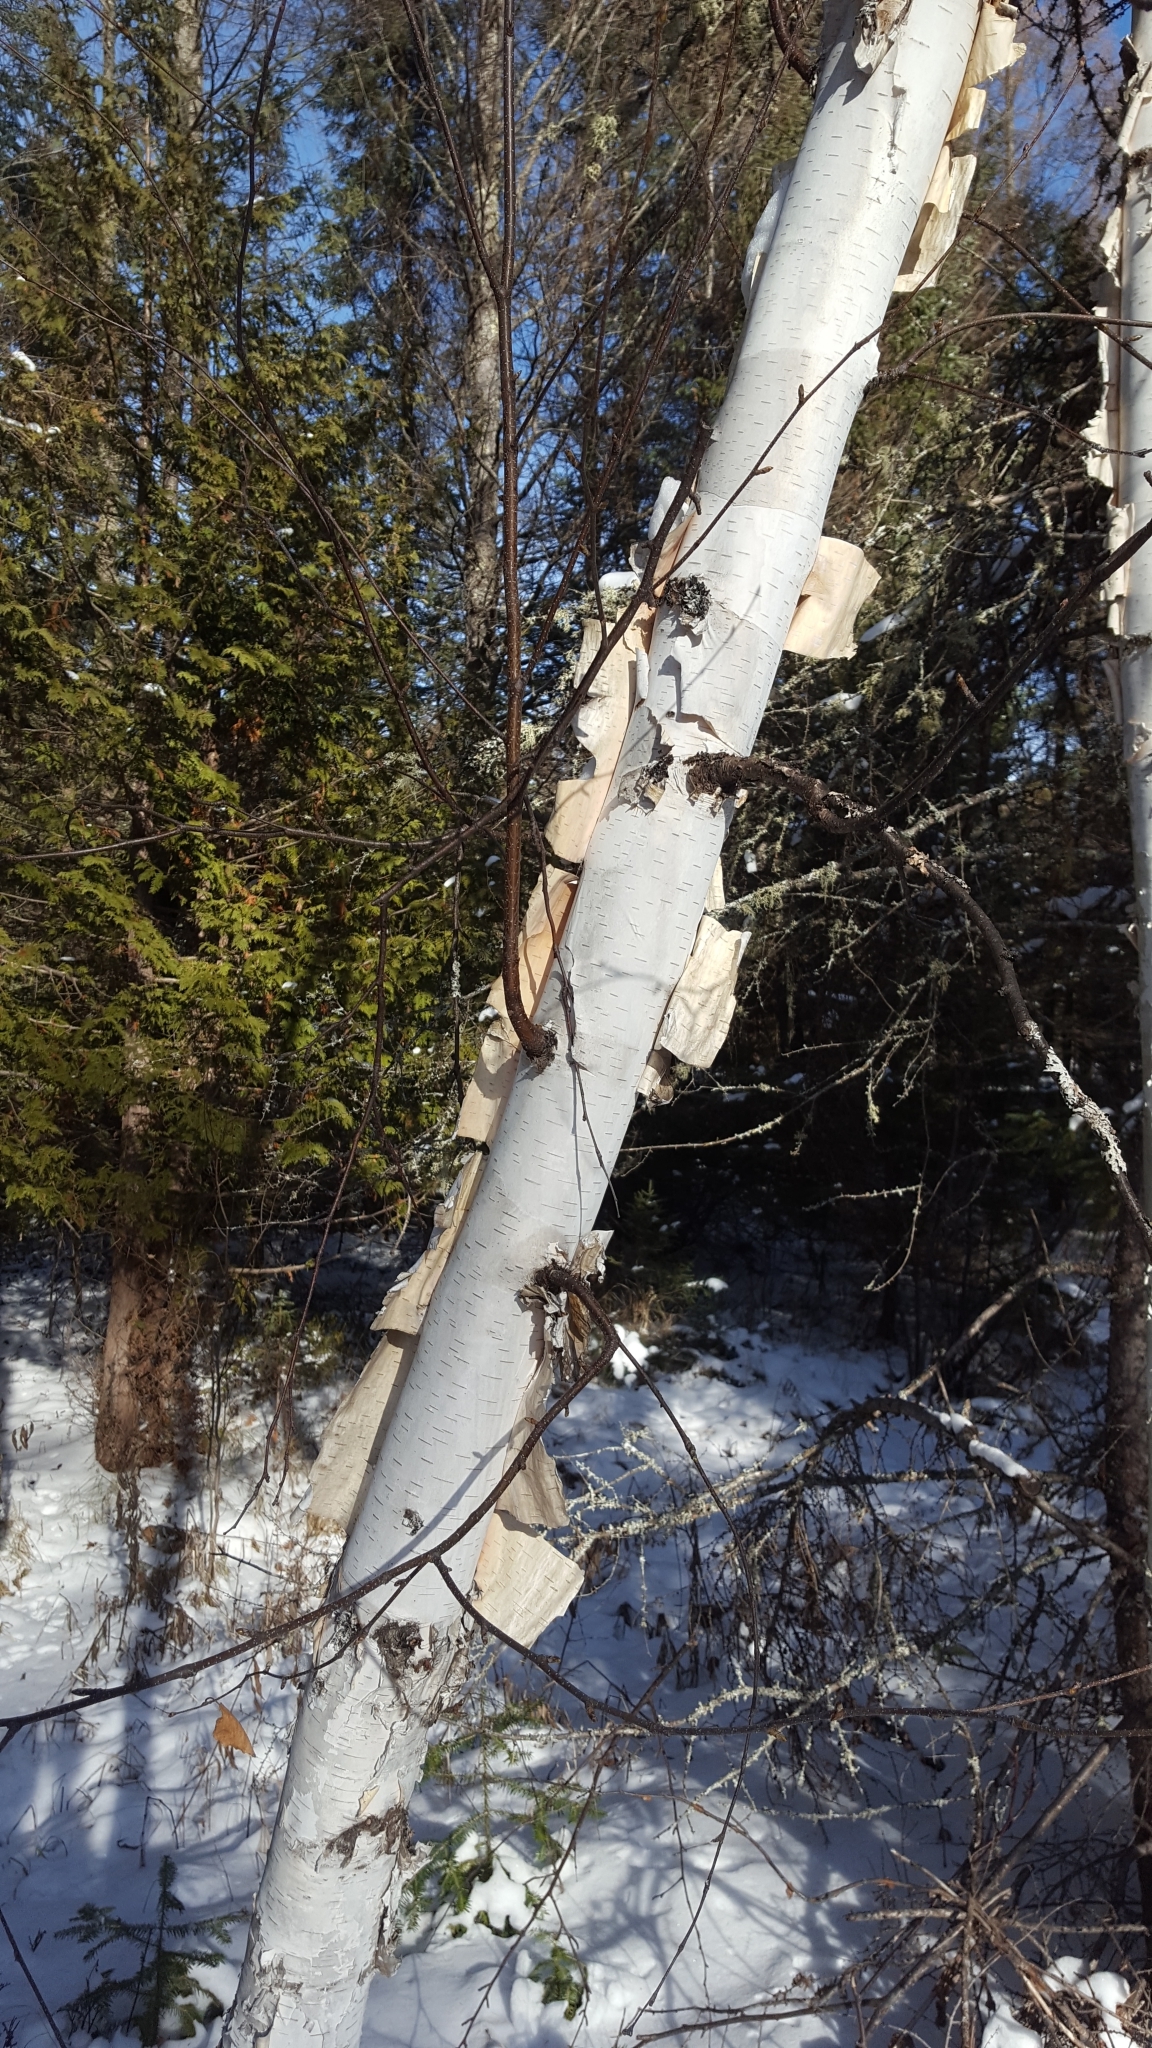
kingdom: Plantae
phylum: Tracheophyta
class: Magnoliopsida
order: Fagales
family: Betulaceae
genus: Betula
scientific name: Betula papyrifera
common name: Paper birch
